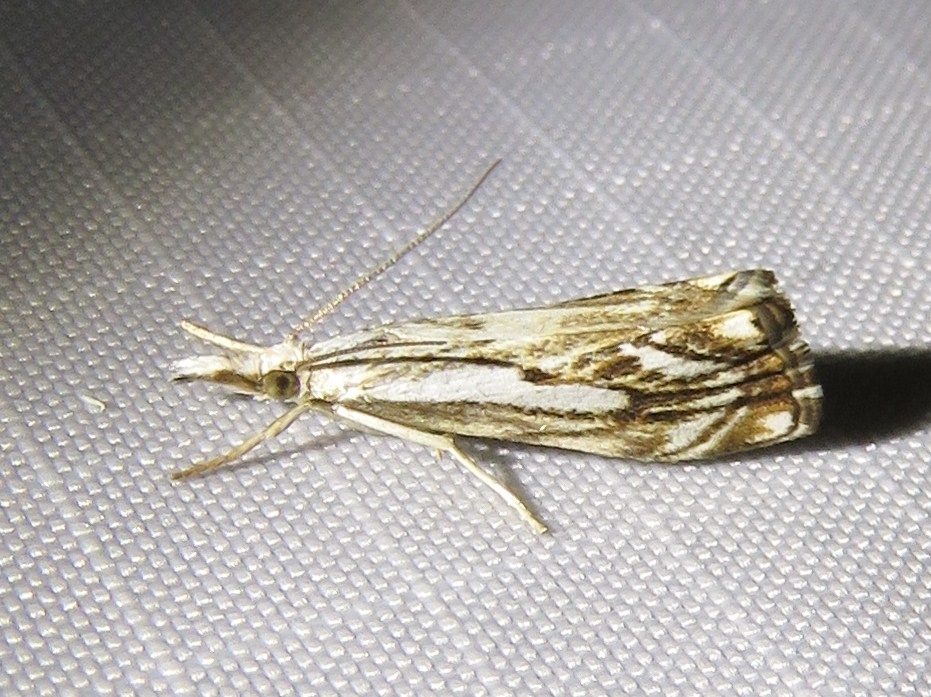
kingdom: Animalia
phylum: Arthropoda
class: Insecta
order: Lepidoptera
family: Crambidae
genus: Catoptria
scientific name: Catoptria falsella
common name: Chequered grass-veneer
